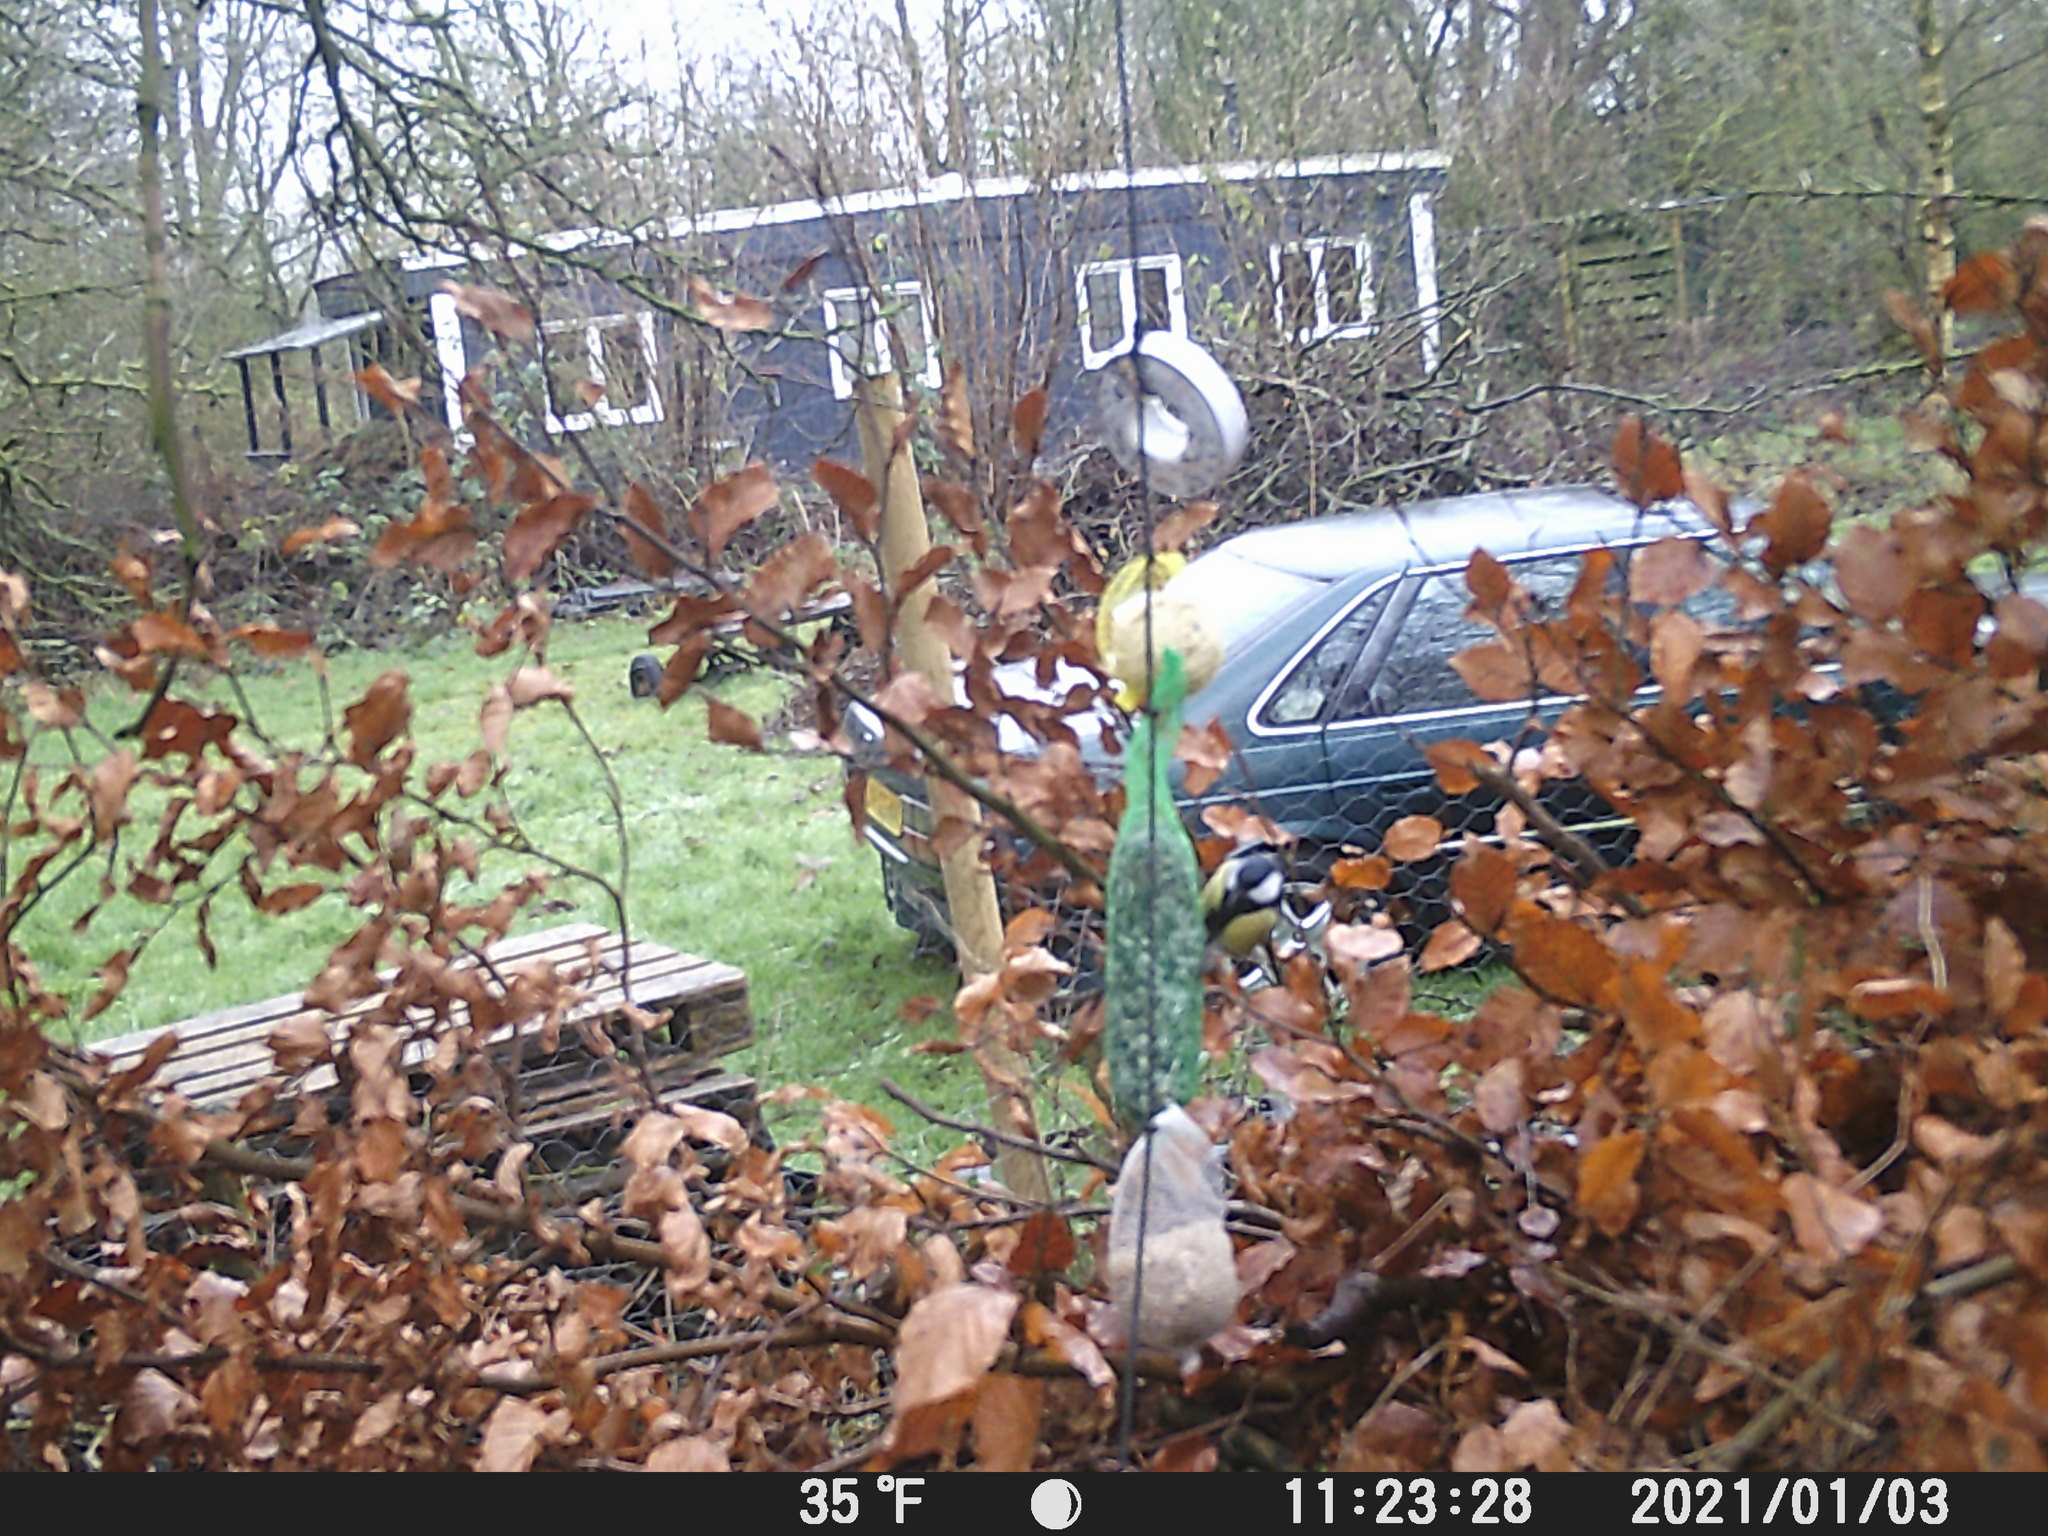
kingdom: Animalia
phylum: Chordata
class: Aves
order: Passeriformes
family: Paridae
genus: Parus
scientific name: Parus major
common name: Great tit
